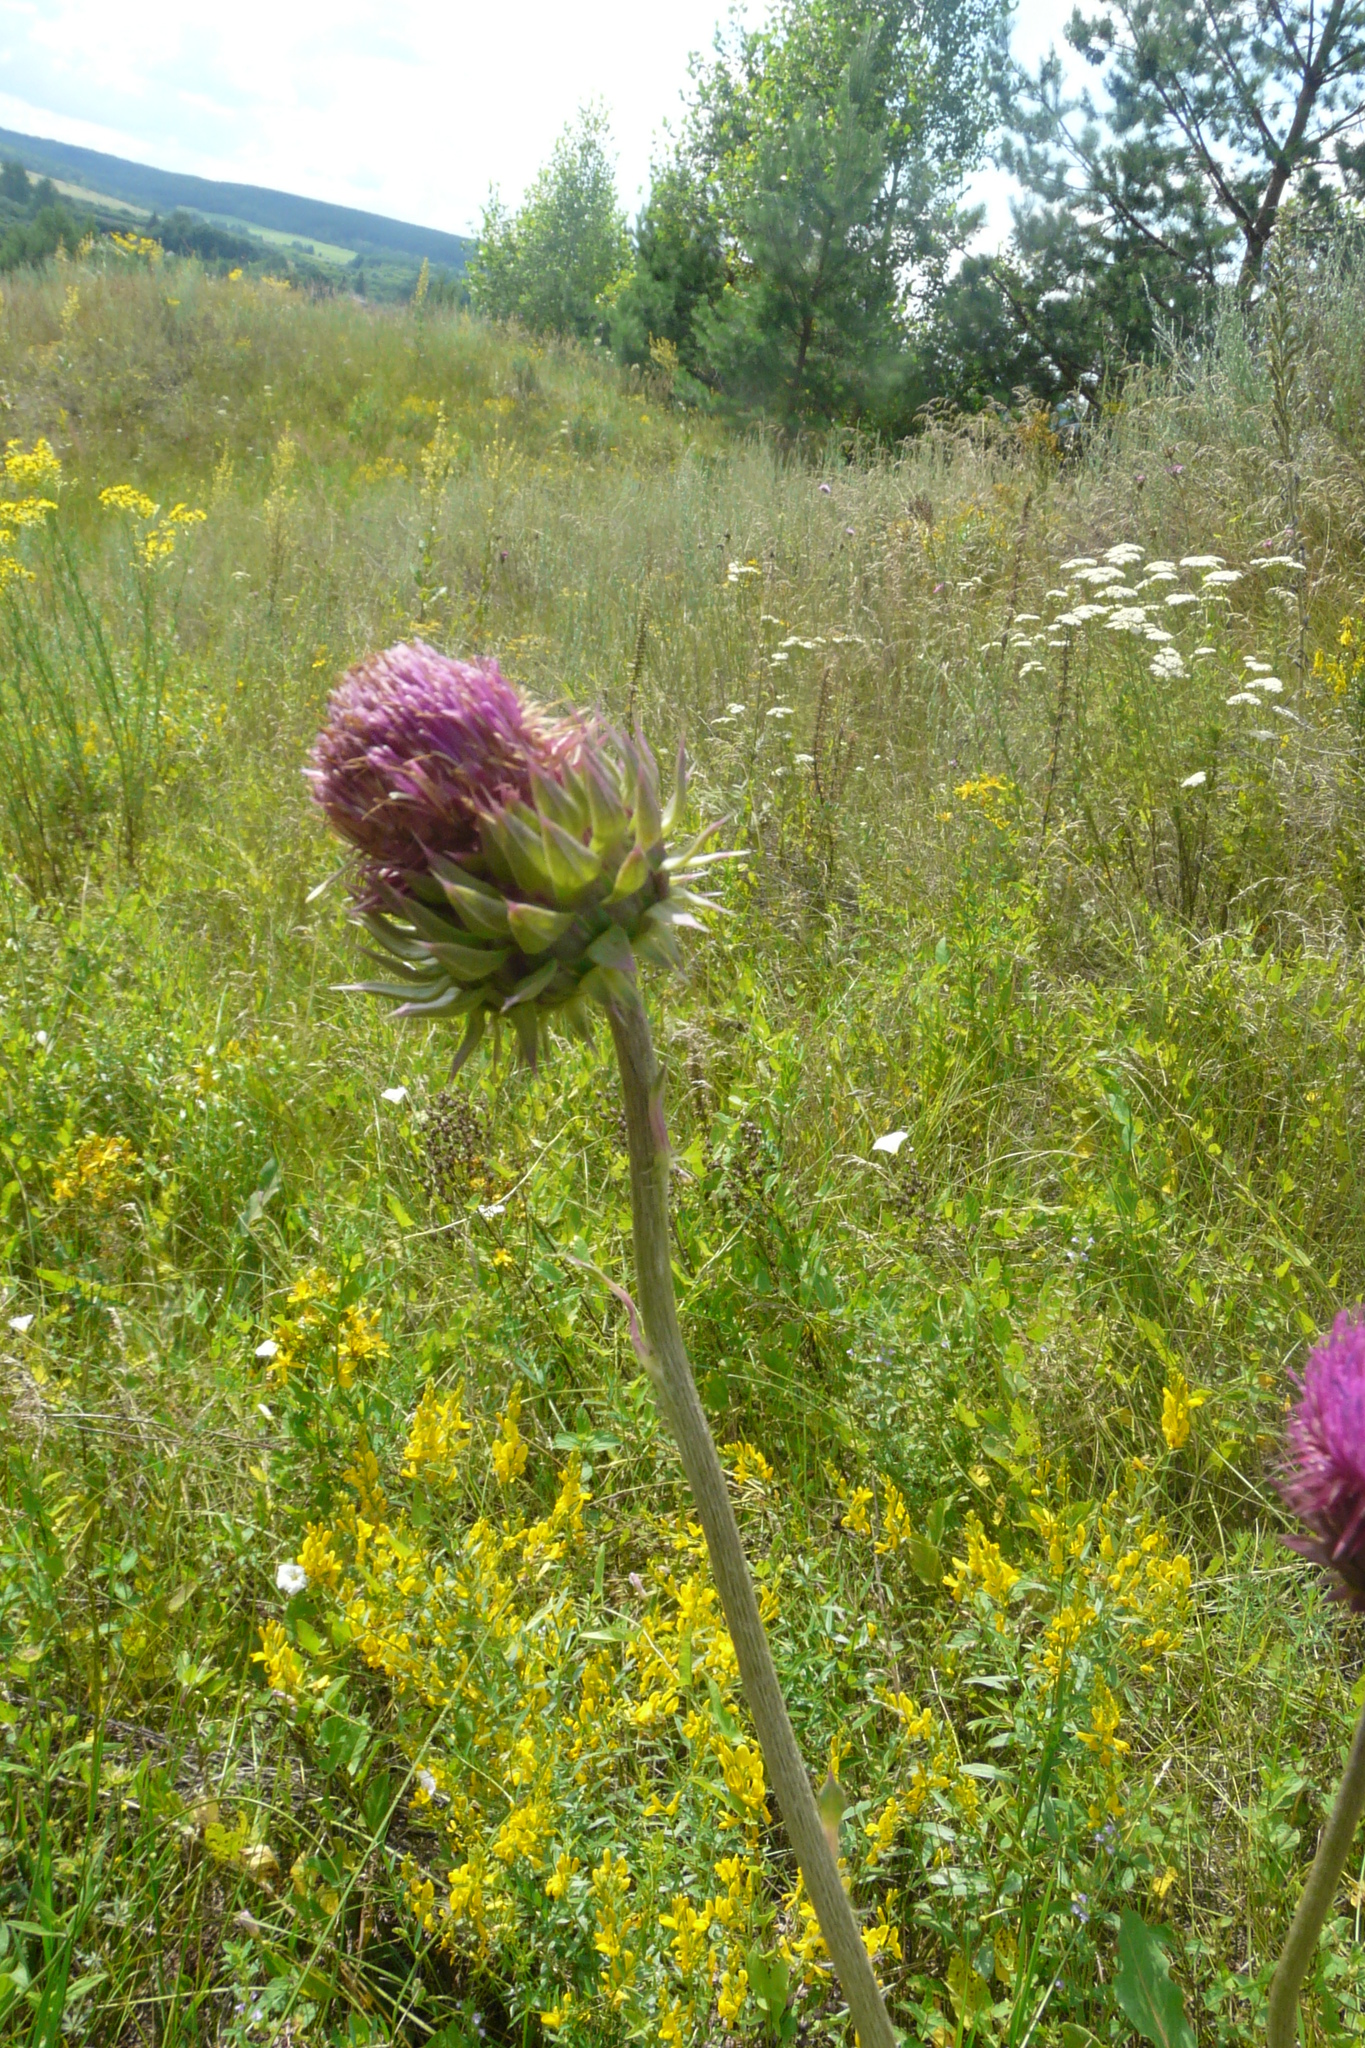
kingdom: Plantae
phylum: Tracheophyta
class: Magnoliopsida
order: Asterales
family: Asteraceae
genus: Carduus
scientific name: Carduus nutans
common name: Musk thistle
